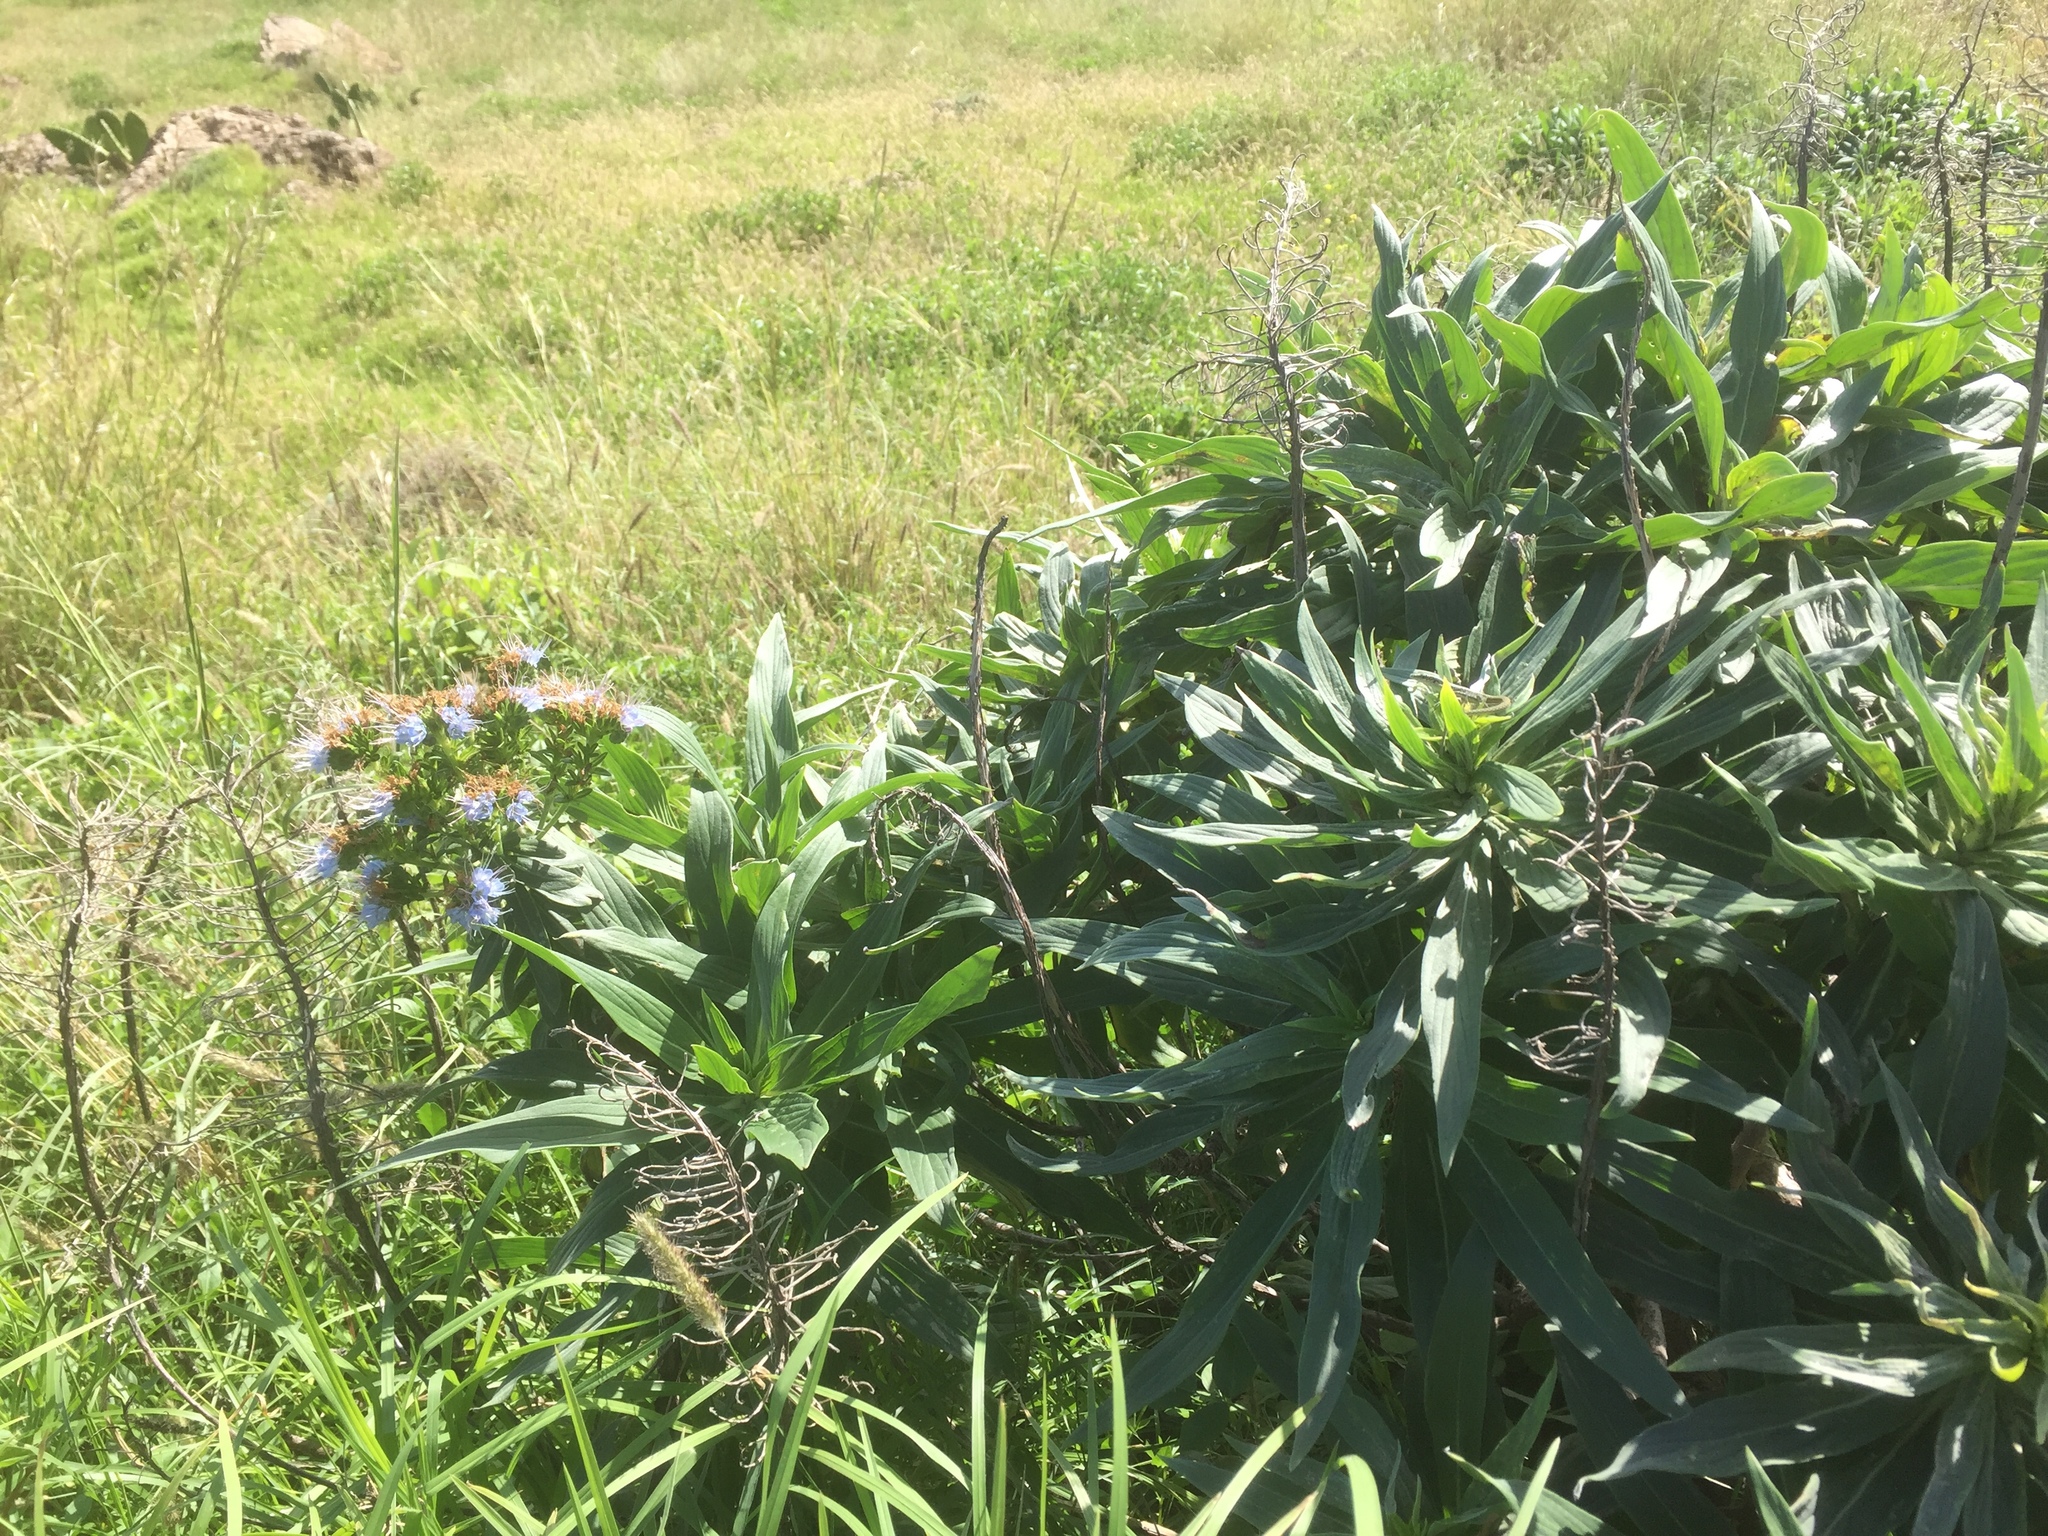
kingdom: Plantae
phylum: Tracheophyta
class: Magnoliopsida
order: Boraginales
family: Boraginaceae
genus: Echium
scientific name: Echium nervosum
